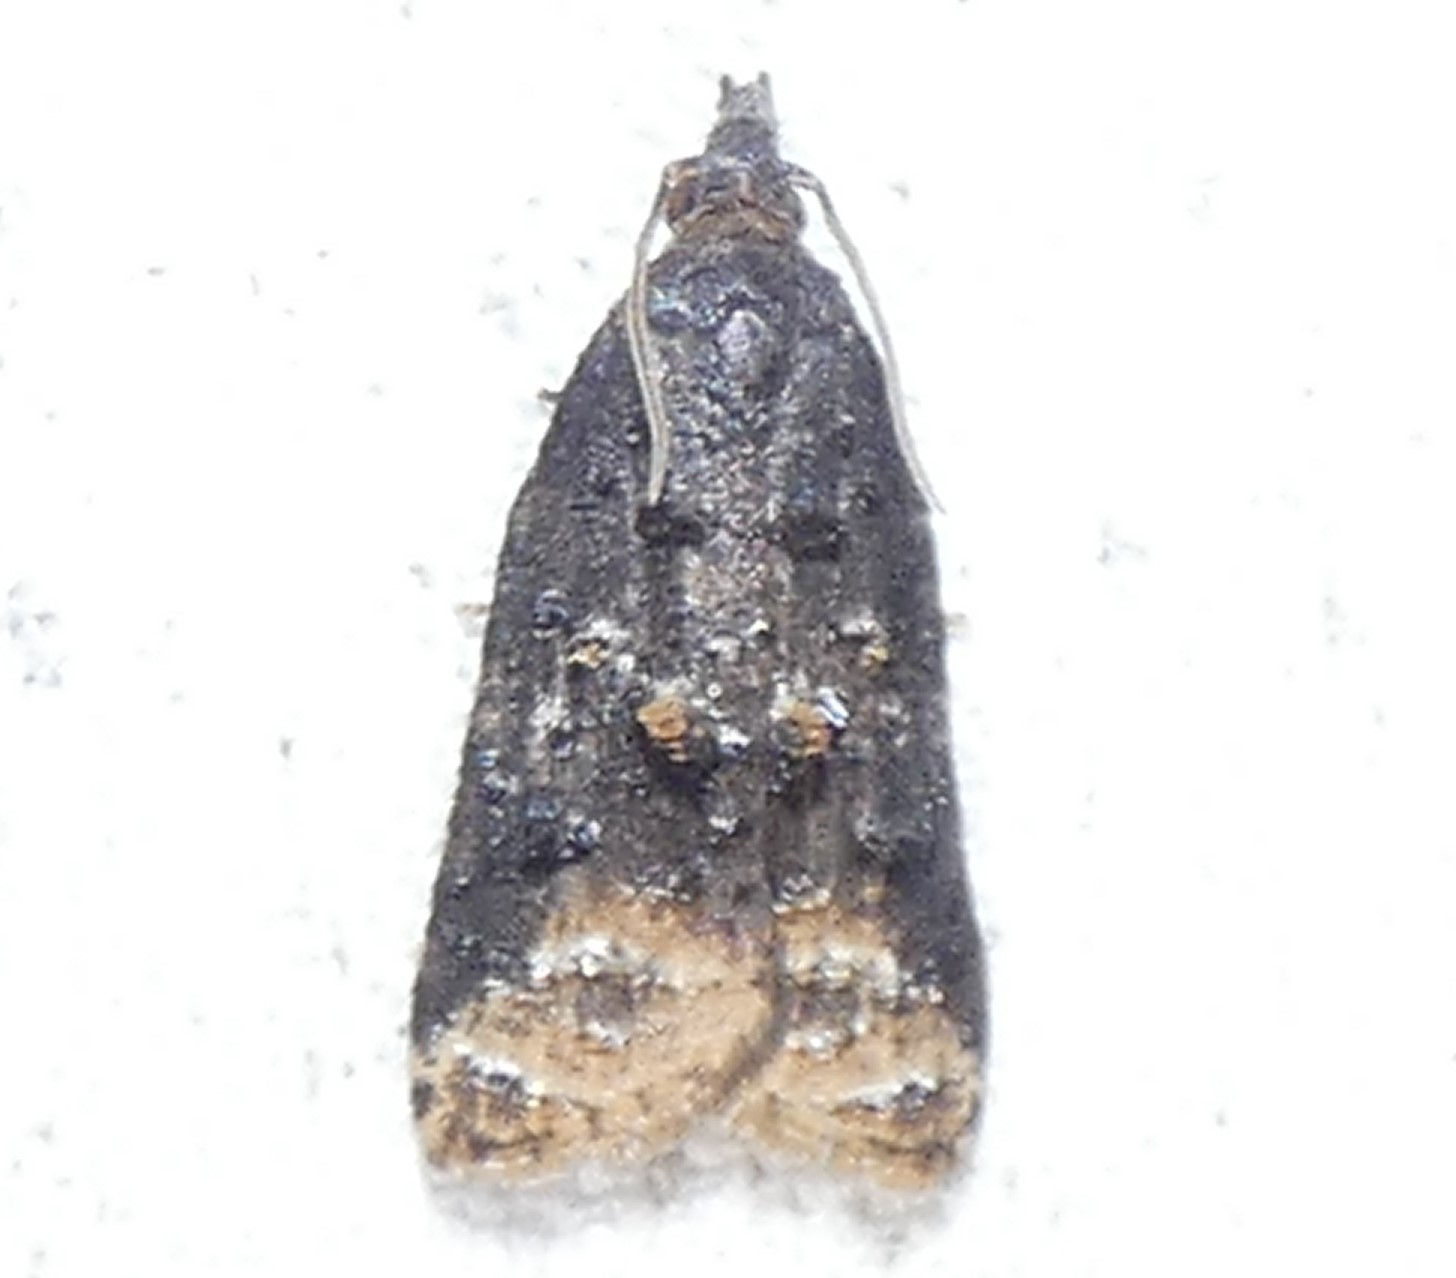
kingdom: Animalia
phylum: Arthropoda
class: Insecta
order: Lepidoptera
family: Tortricidae
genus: Platynota
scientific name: Platynota semiustana
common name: Singed platynota
